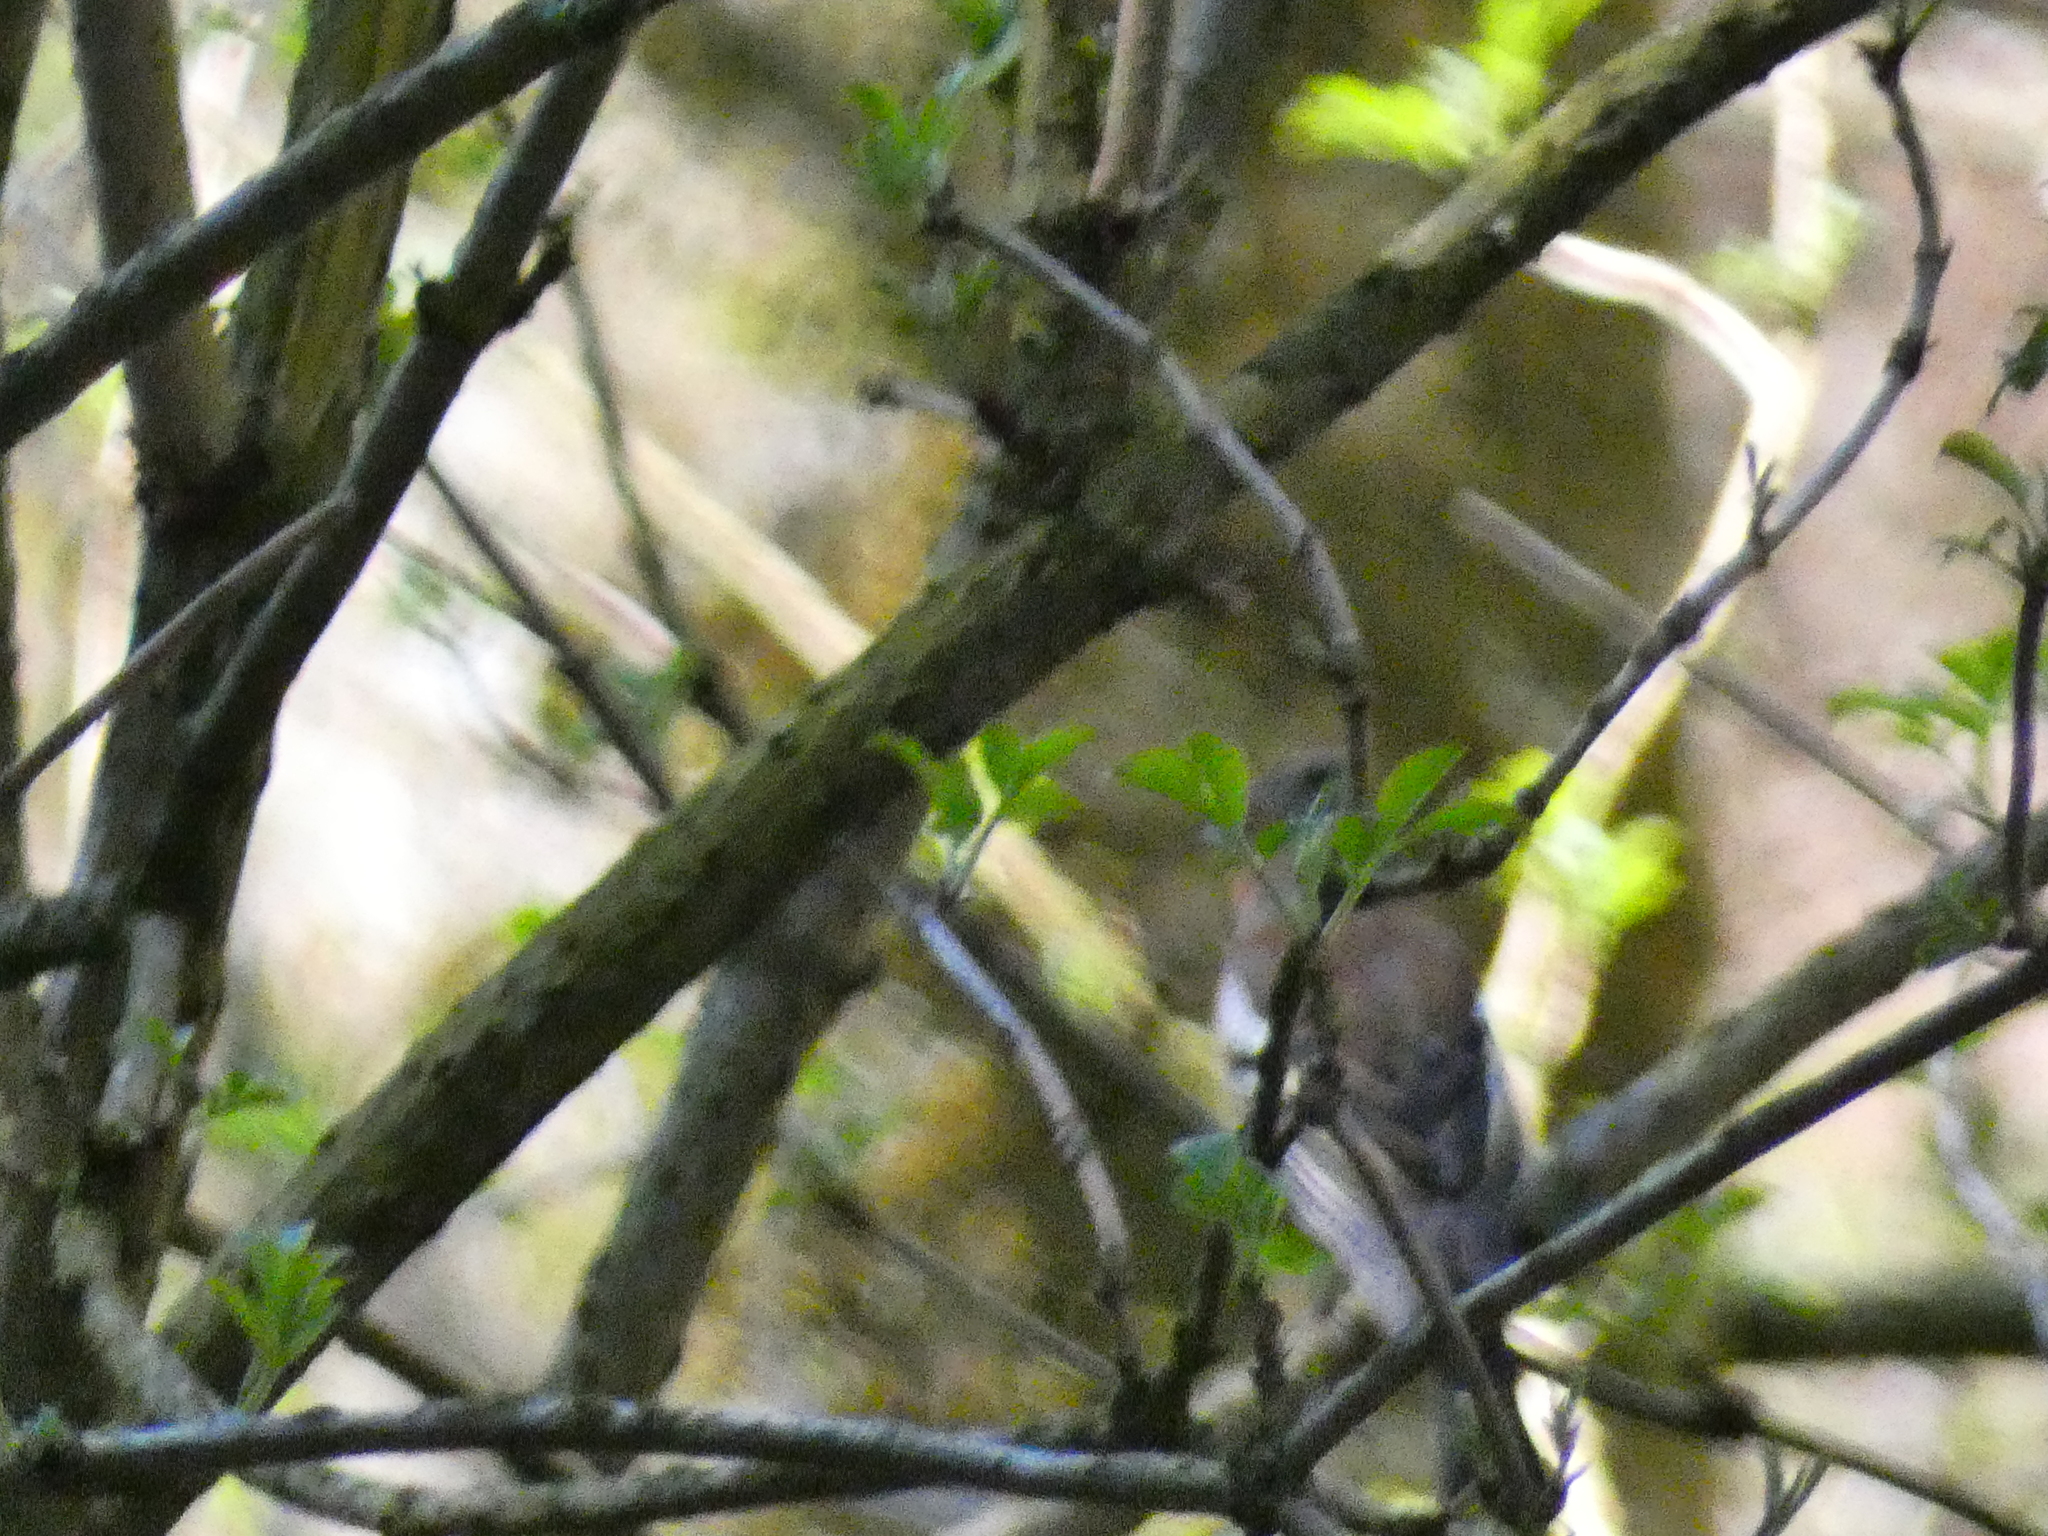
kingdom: Animalia
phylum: Chordata
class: Aves
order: Passeriformes
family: Fringillidae
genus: Fringilla
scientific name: Fringilla coelebs
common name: Common chaffinch
